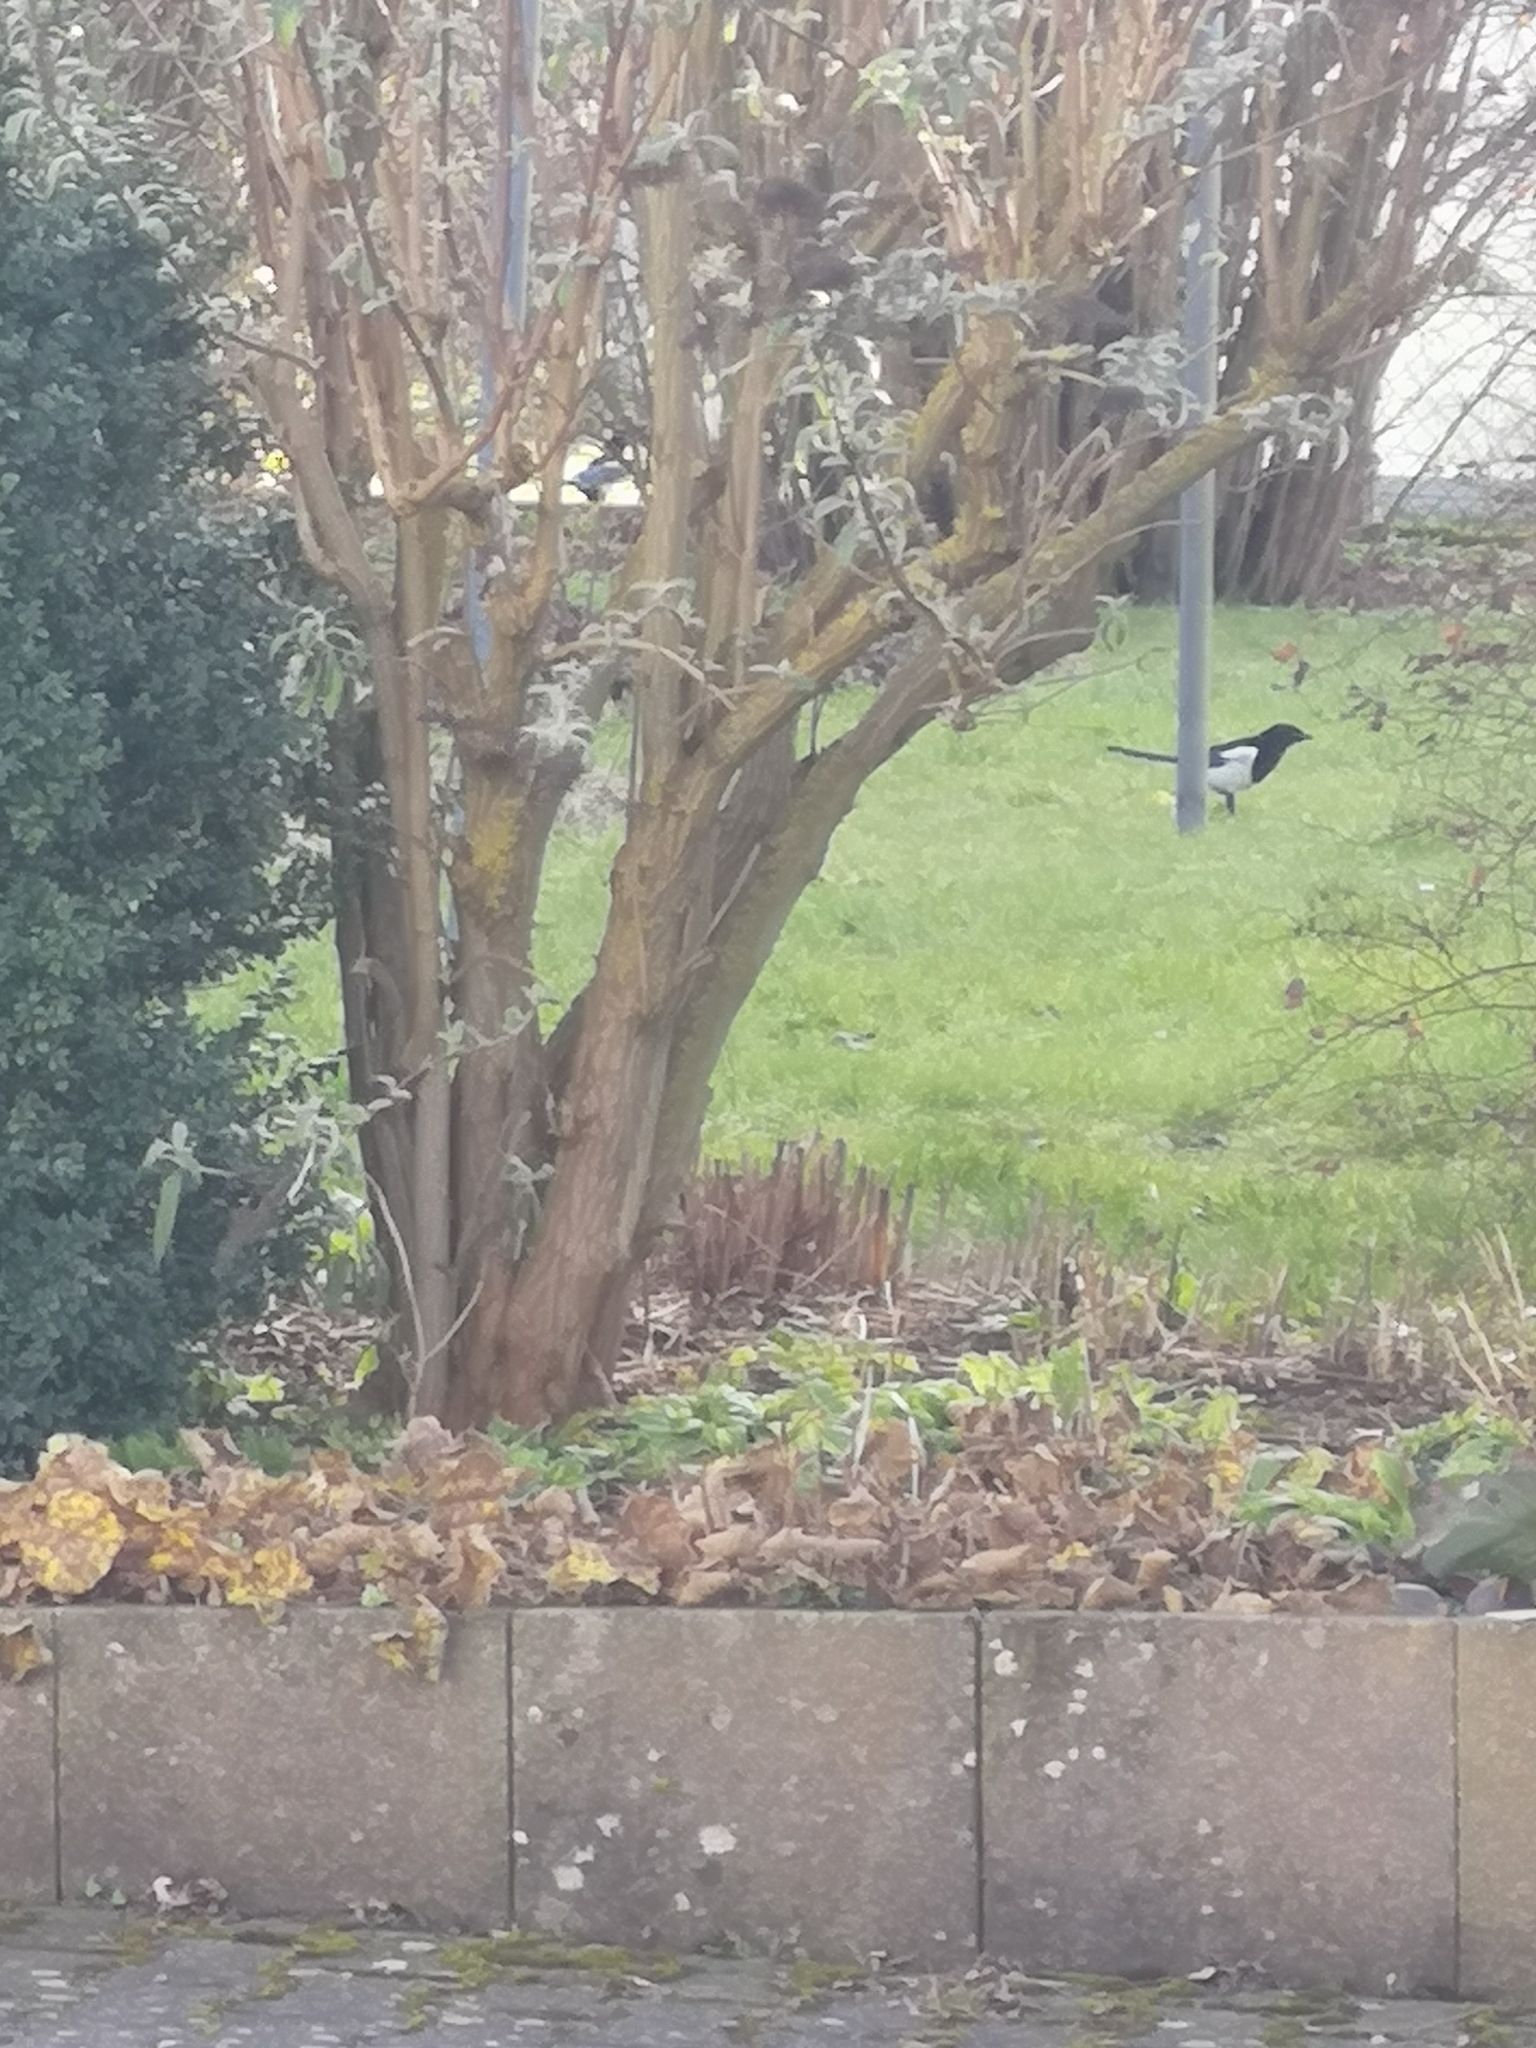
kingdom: Animalia
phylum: Chordata
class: Aves
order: Passeriformes
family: Corvidae
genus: Pica
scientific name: Pica pica
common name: Eurasian magpie
